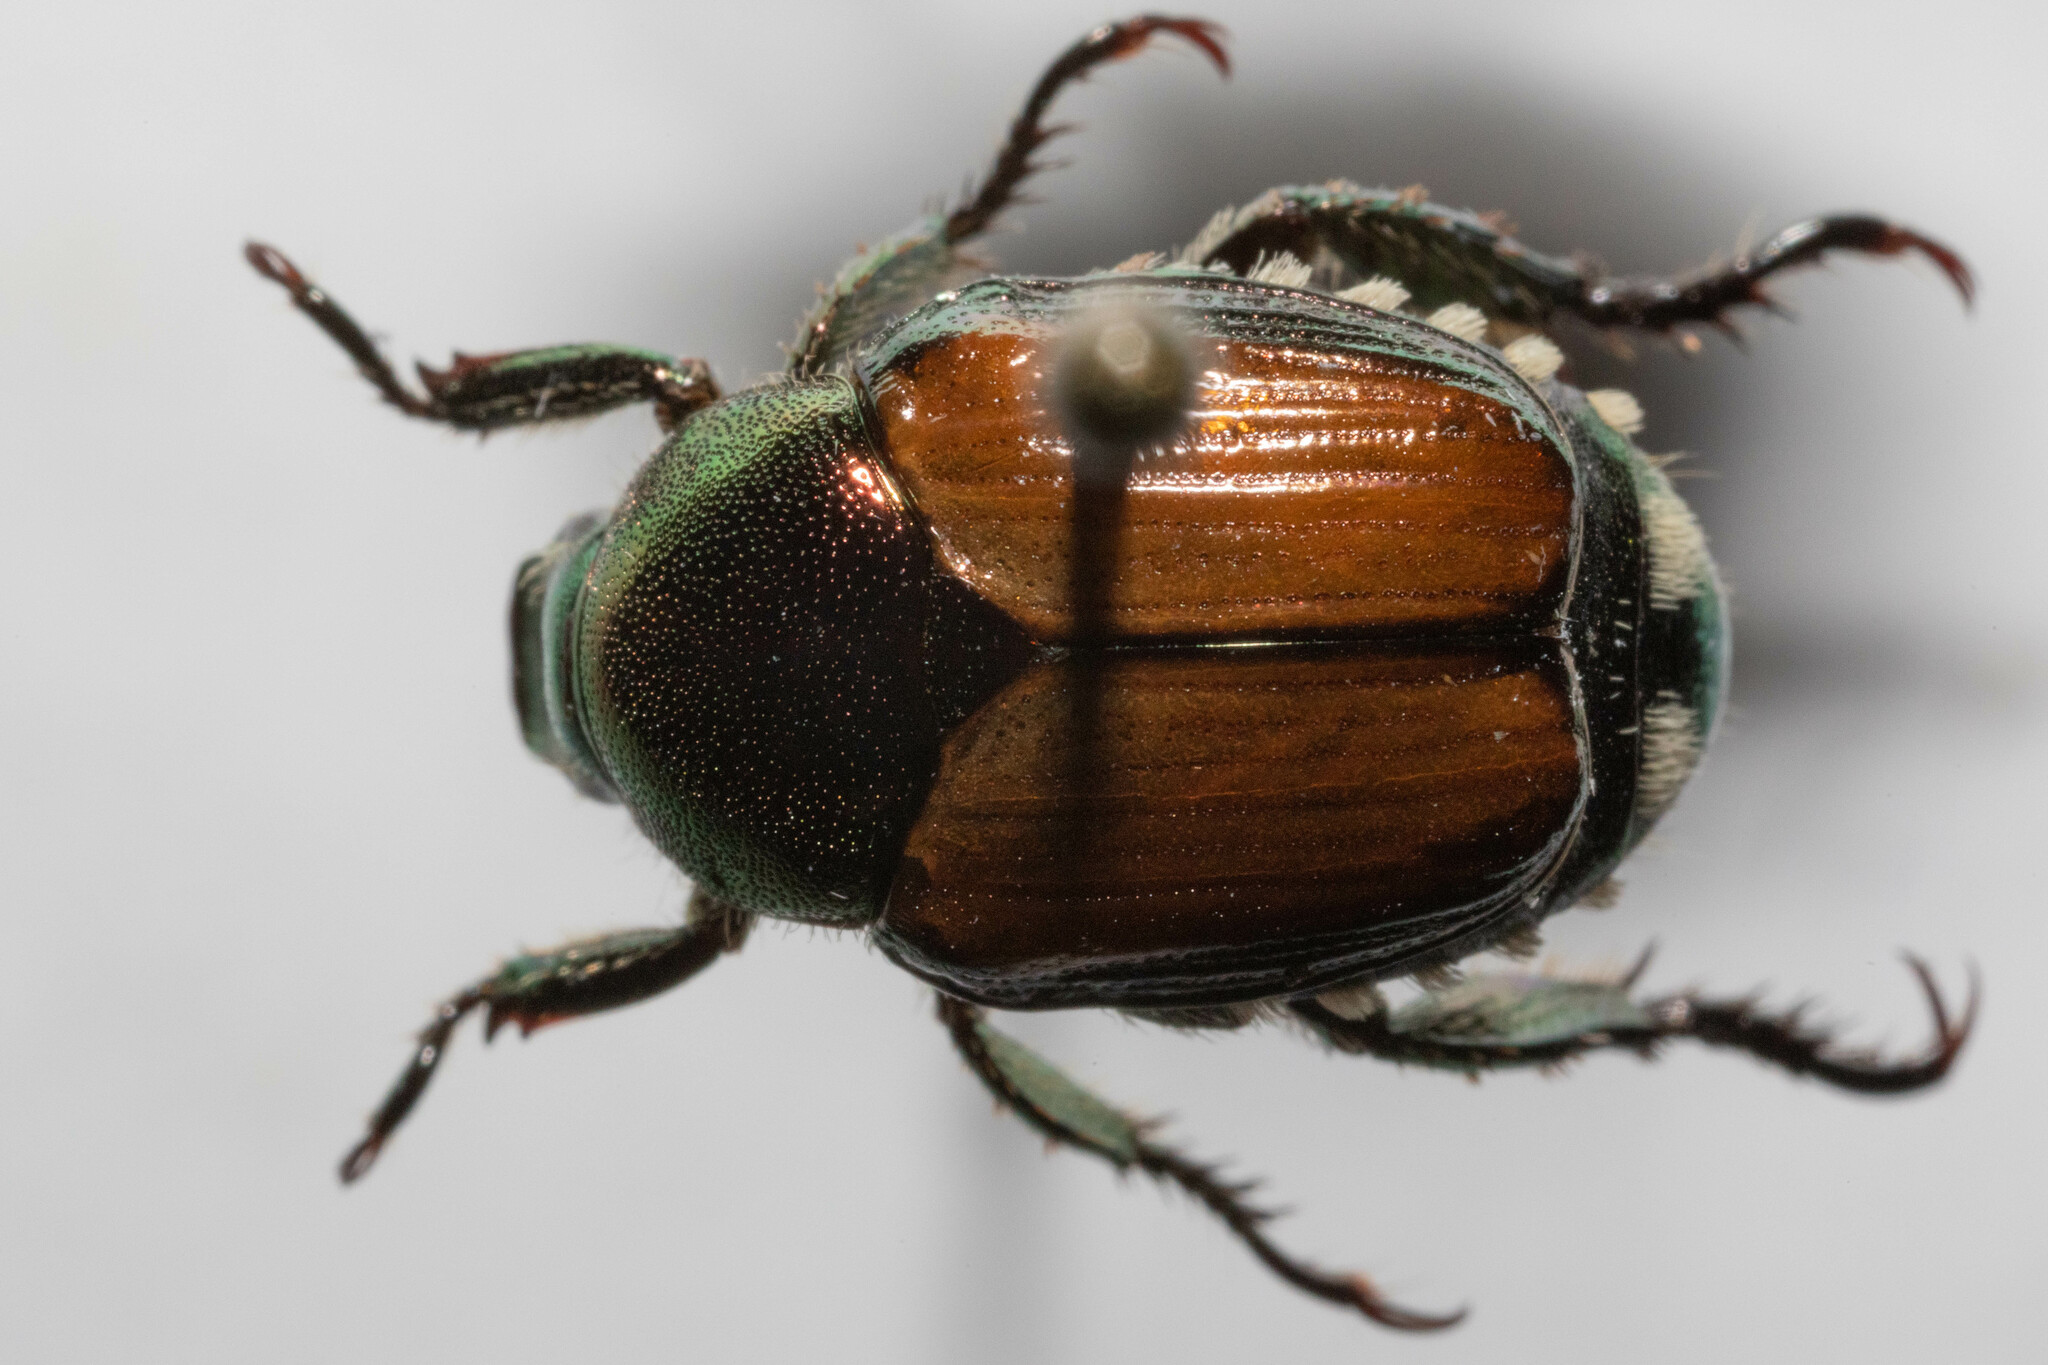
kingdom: Animalia
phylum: Arthropoda
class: Insecta
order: Coleoptera
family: Scarabaeidae
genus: Popillia
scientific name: Popillia japonica
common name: Japanese beetle
